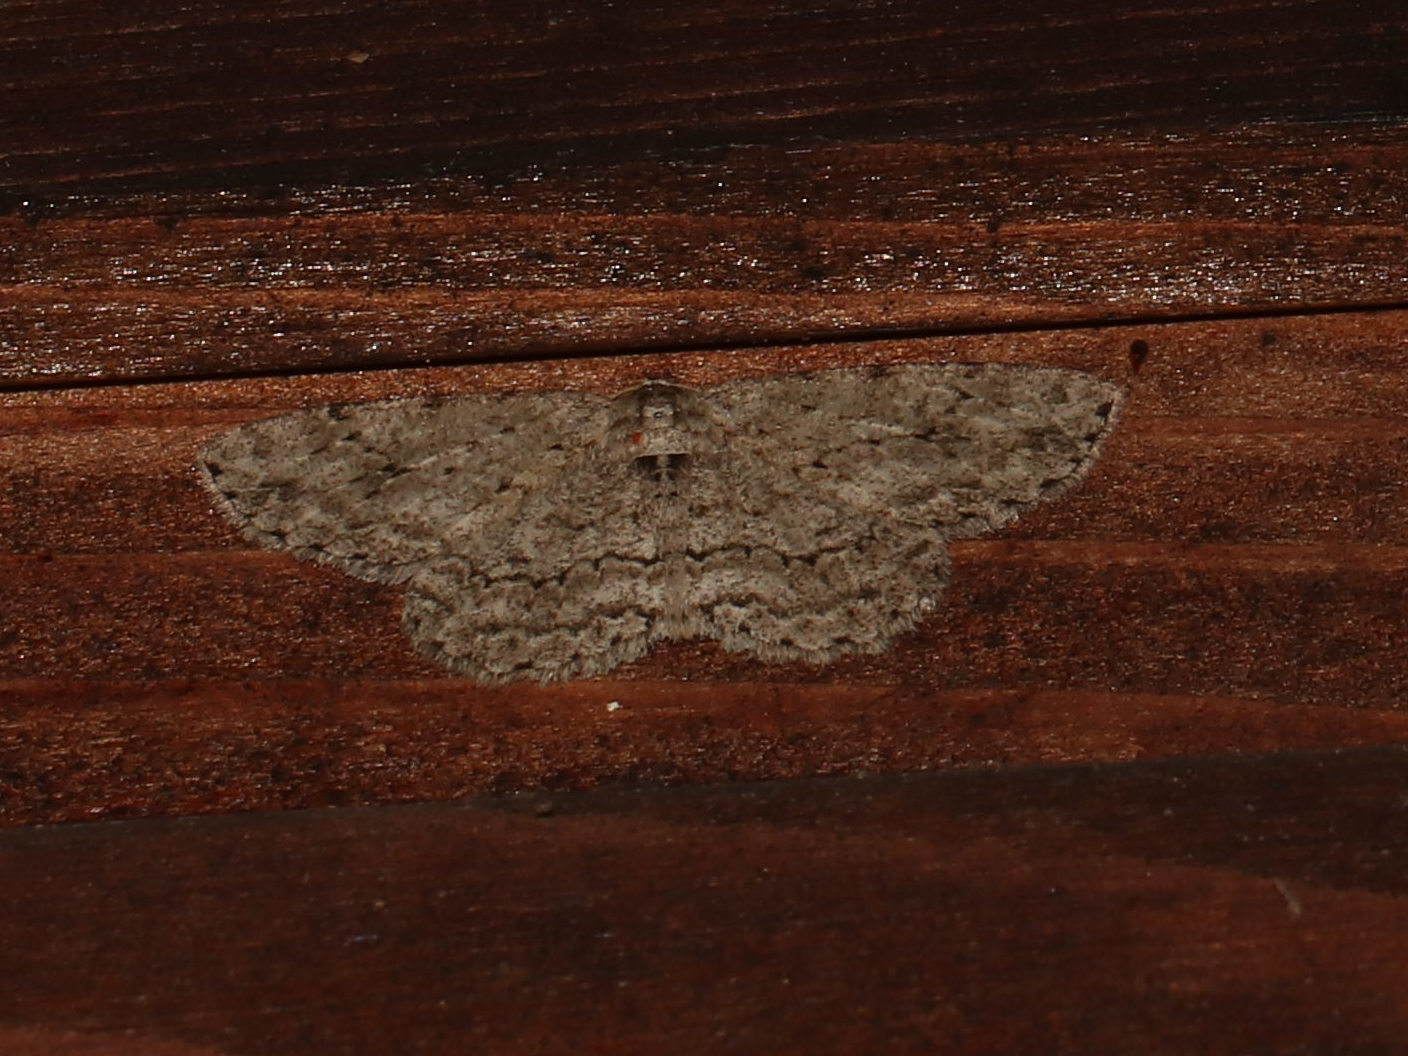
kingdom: Animalia
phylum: Arthropoda
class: Insecta
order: Lepidoptera
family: Geometridae
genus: Ectropis
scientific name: Ectropis crepuscularia
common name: Engrailed
